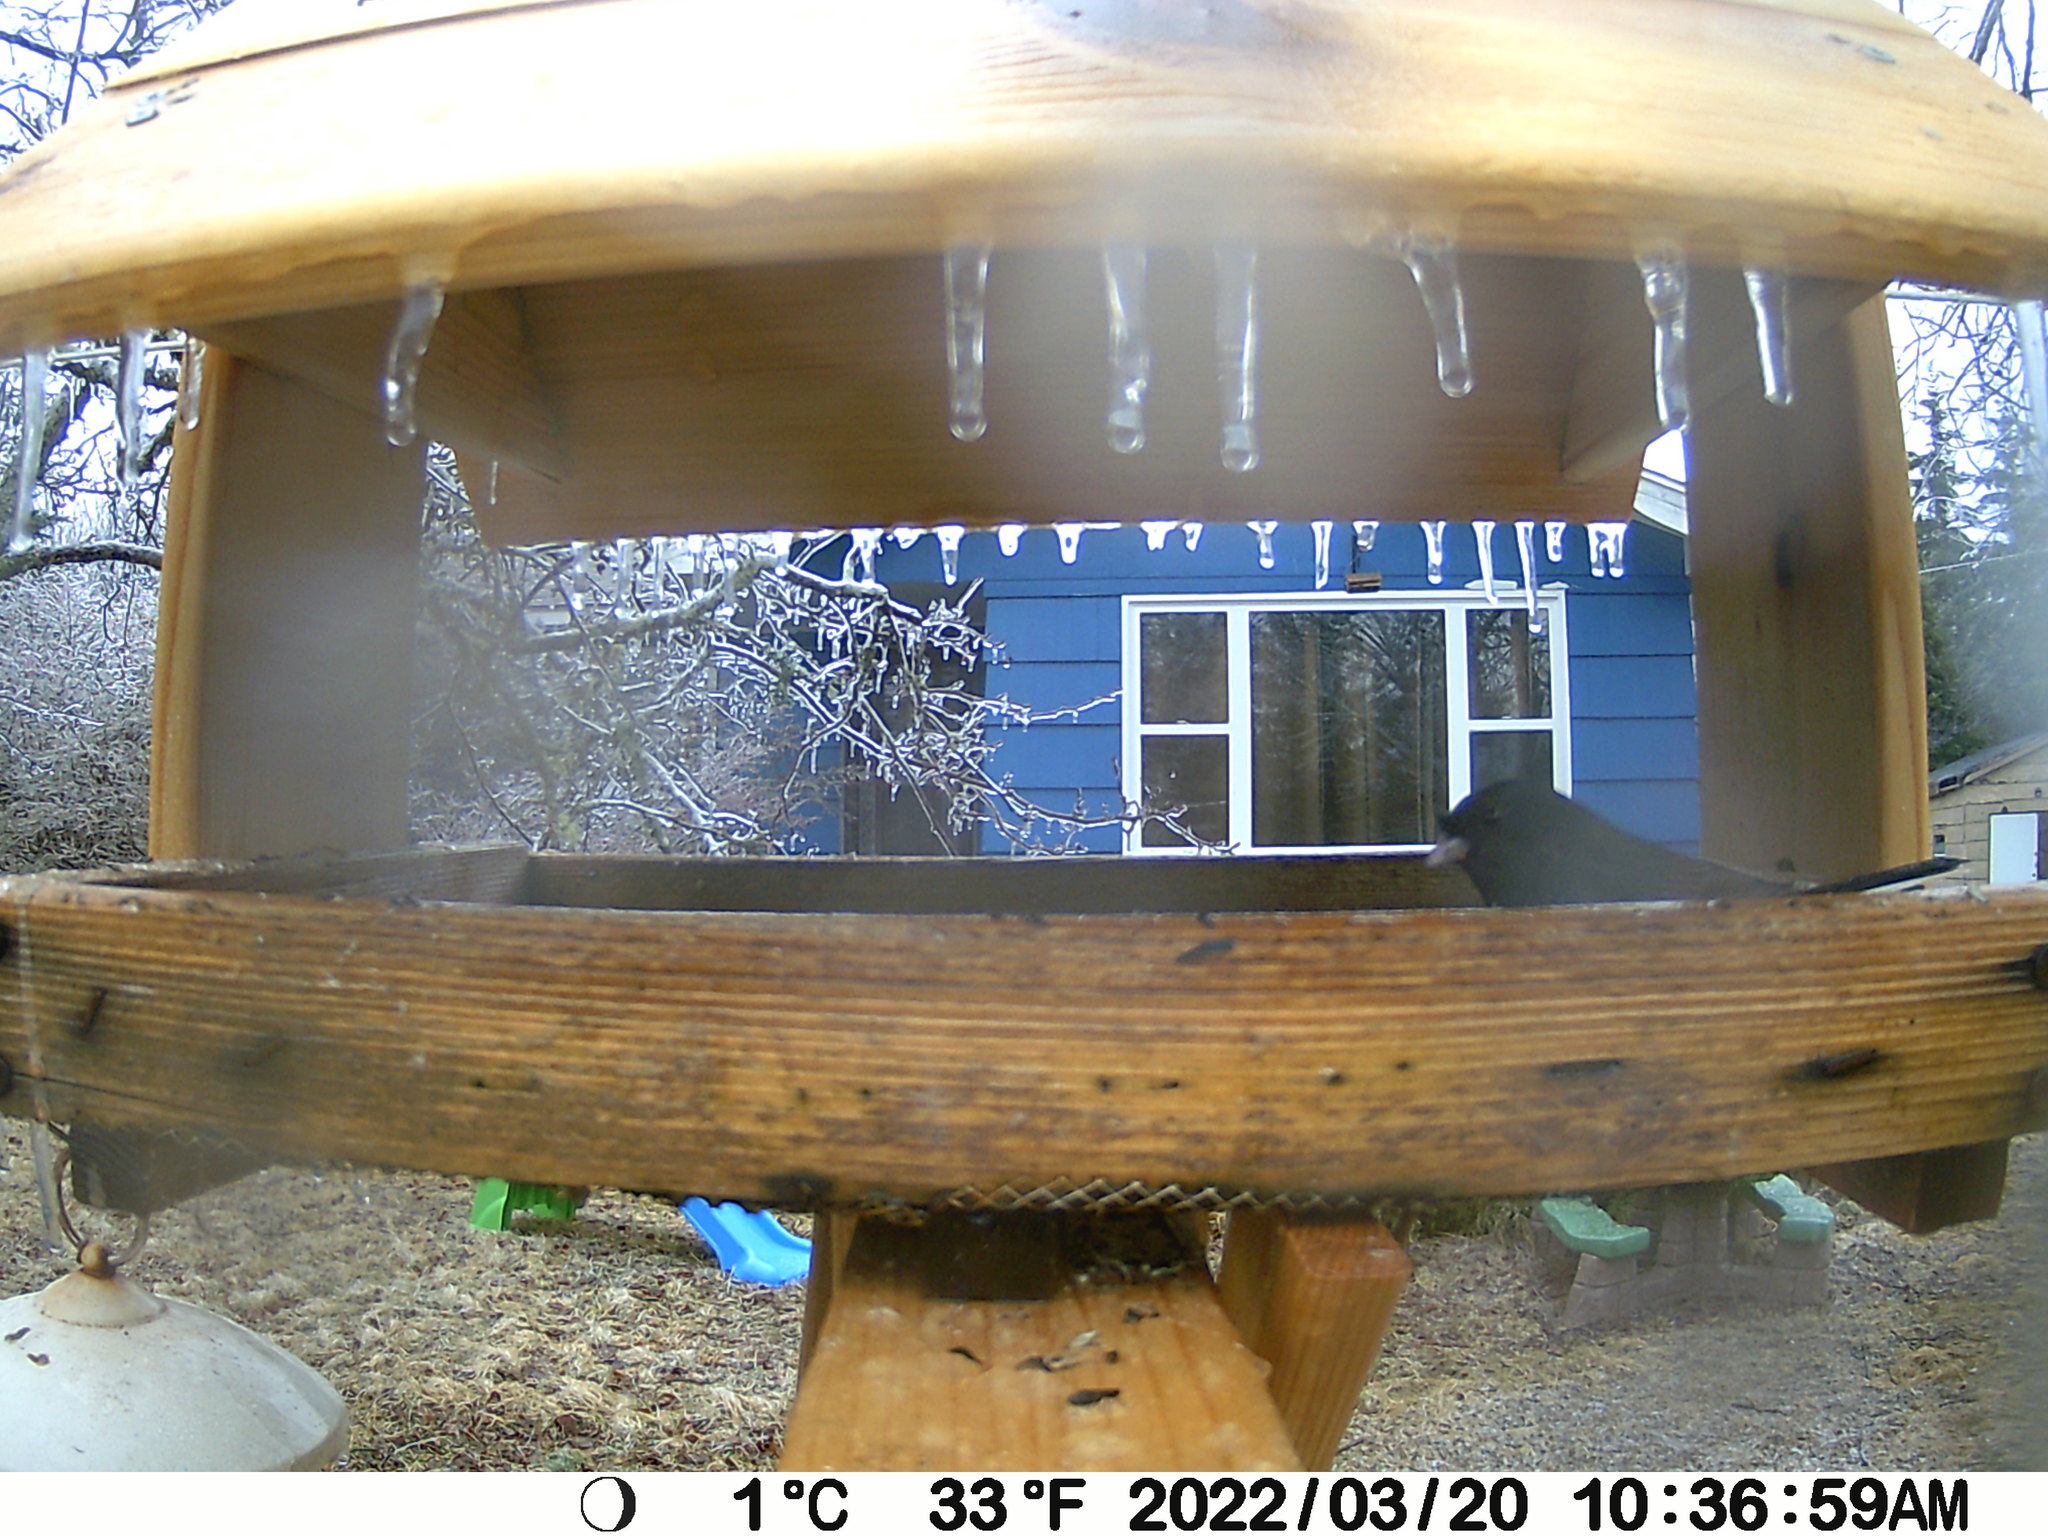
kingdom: Animalia
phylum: Chordata
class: Aves
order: Passeriformes
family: Passerellidae
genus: Junco
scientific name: Junco hyemalis
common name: Dark-eyed junco
